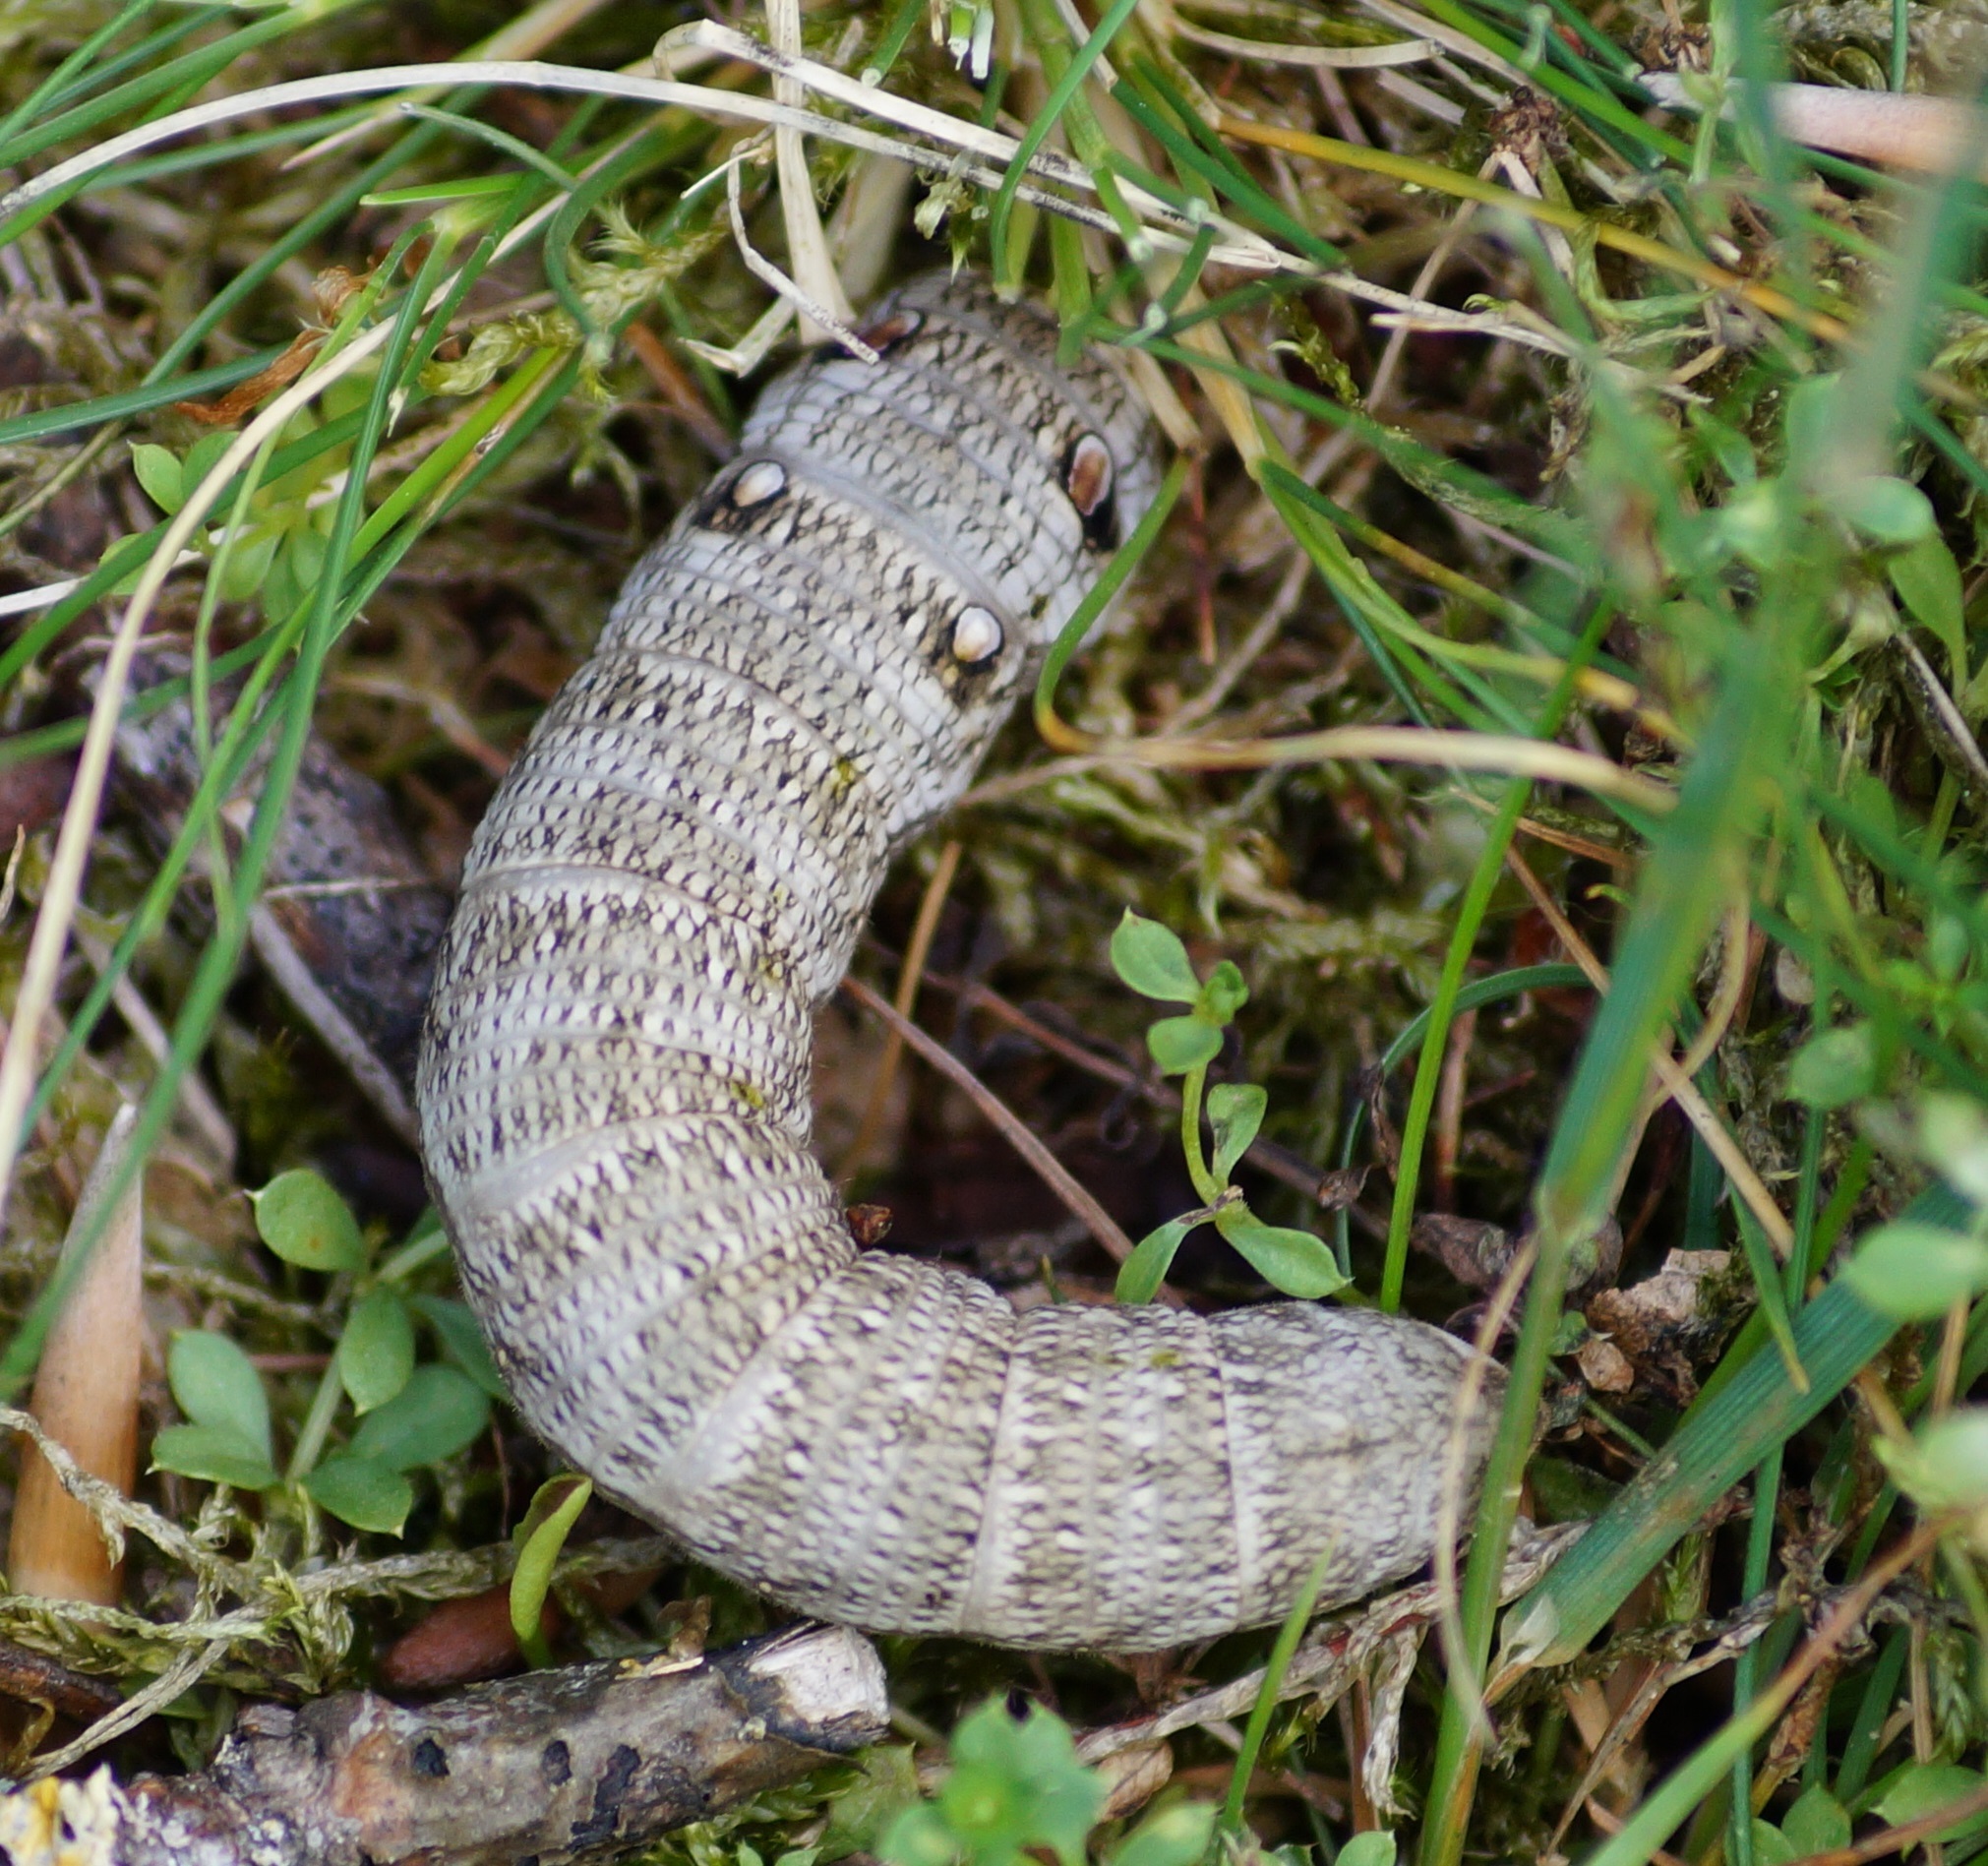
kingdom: Animalia
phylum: Arthropoda
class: Insecta
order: Lepidoptera
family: Sphingidae
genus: Deilephila
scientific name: Deilephila porcellus
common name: Small elephant hawk-moth
